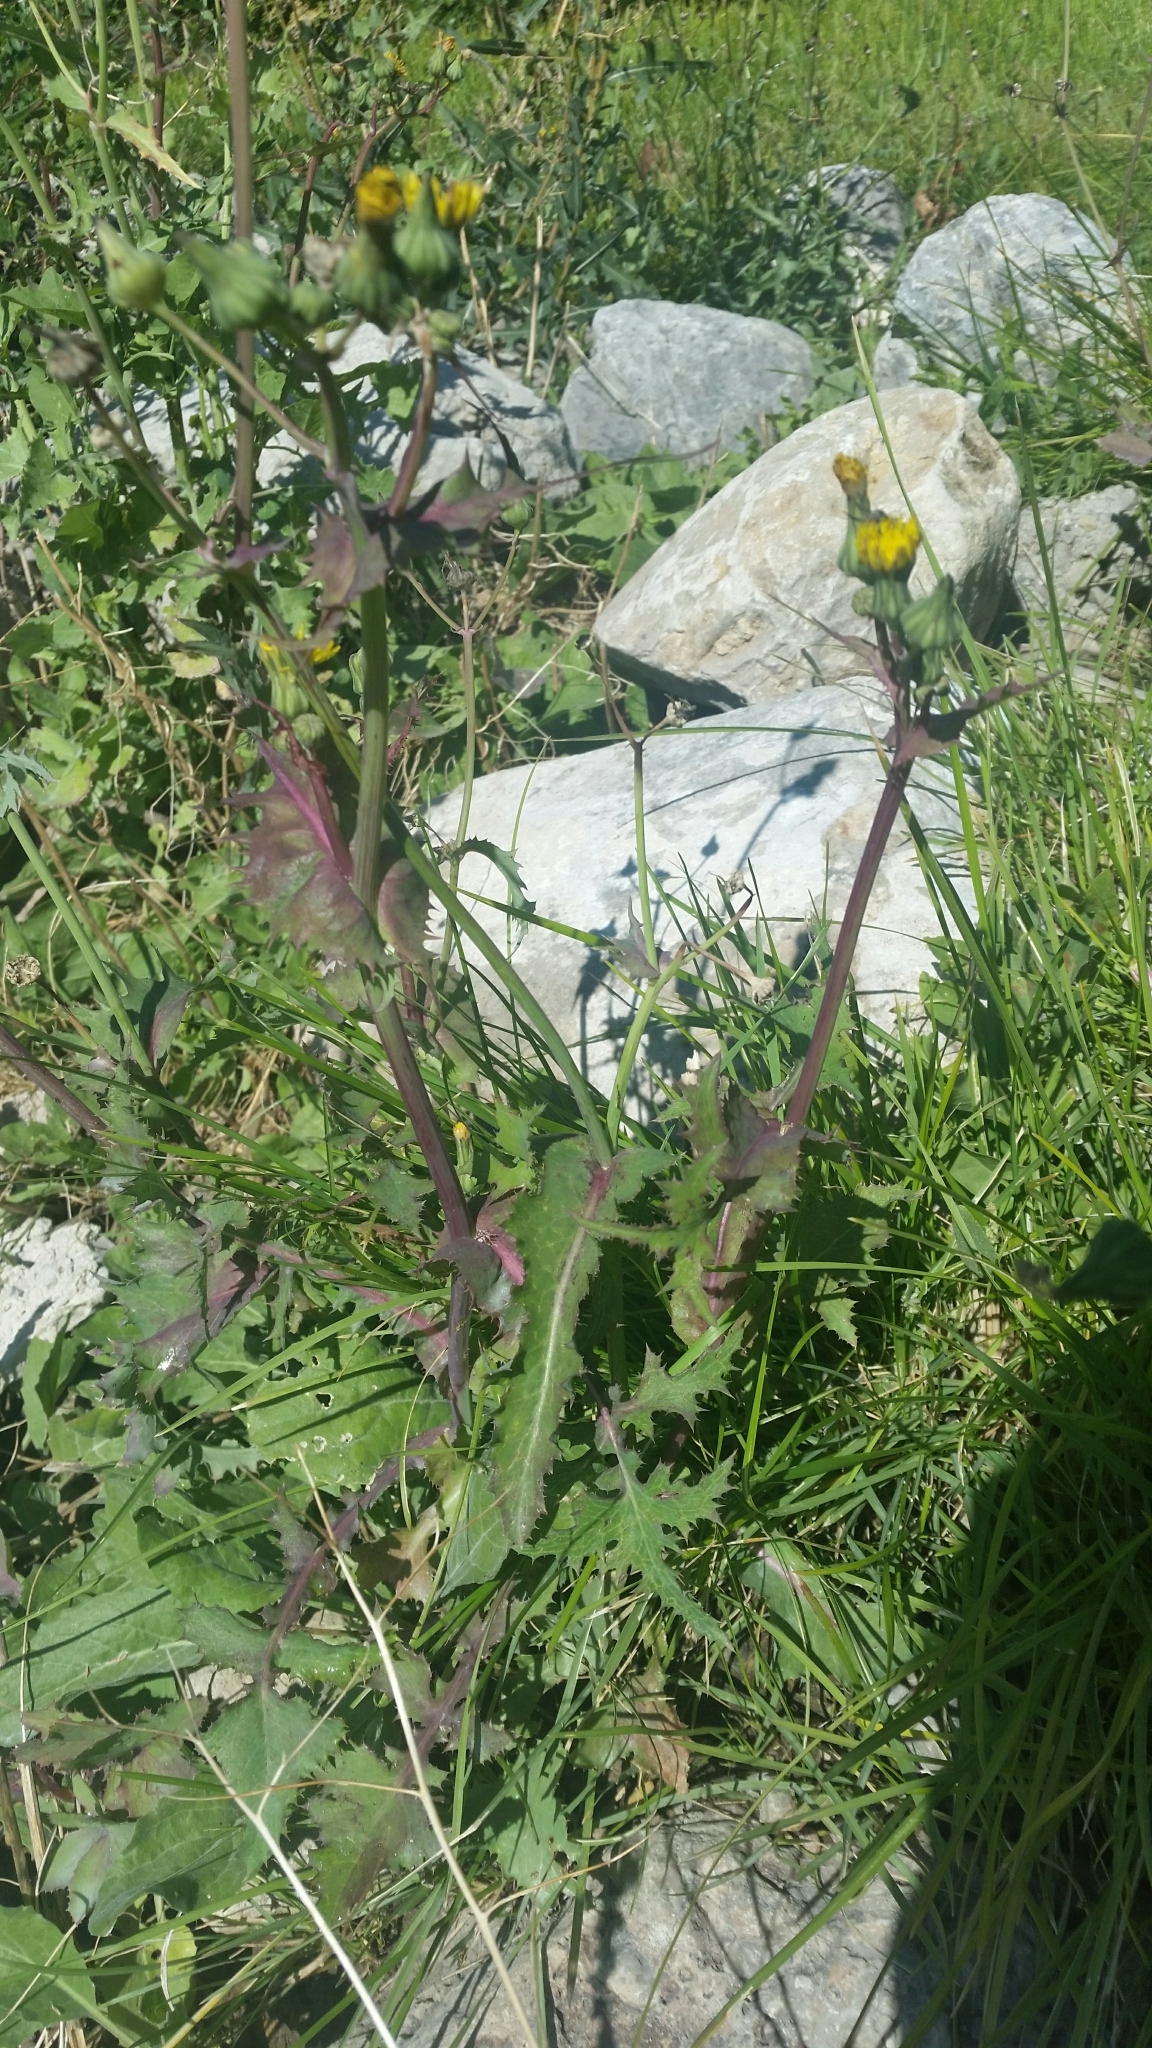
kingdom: Plantae
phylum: Tracheophyta
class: Magnoliopsida
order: Asterales
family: Asteraceae
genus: Sonchus
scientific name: Sonchus oleraceus
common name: Common sowthistle
